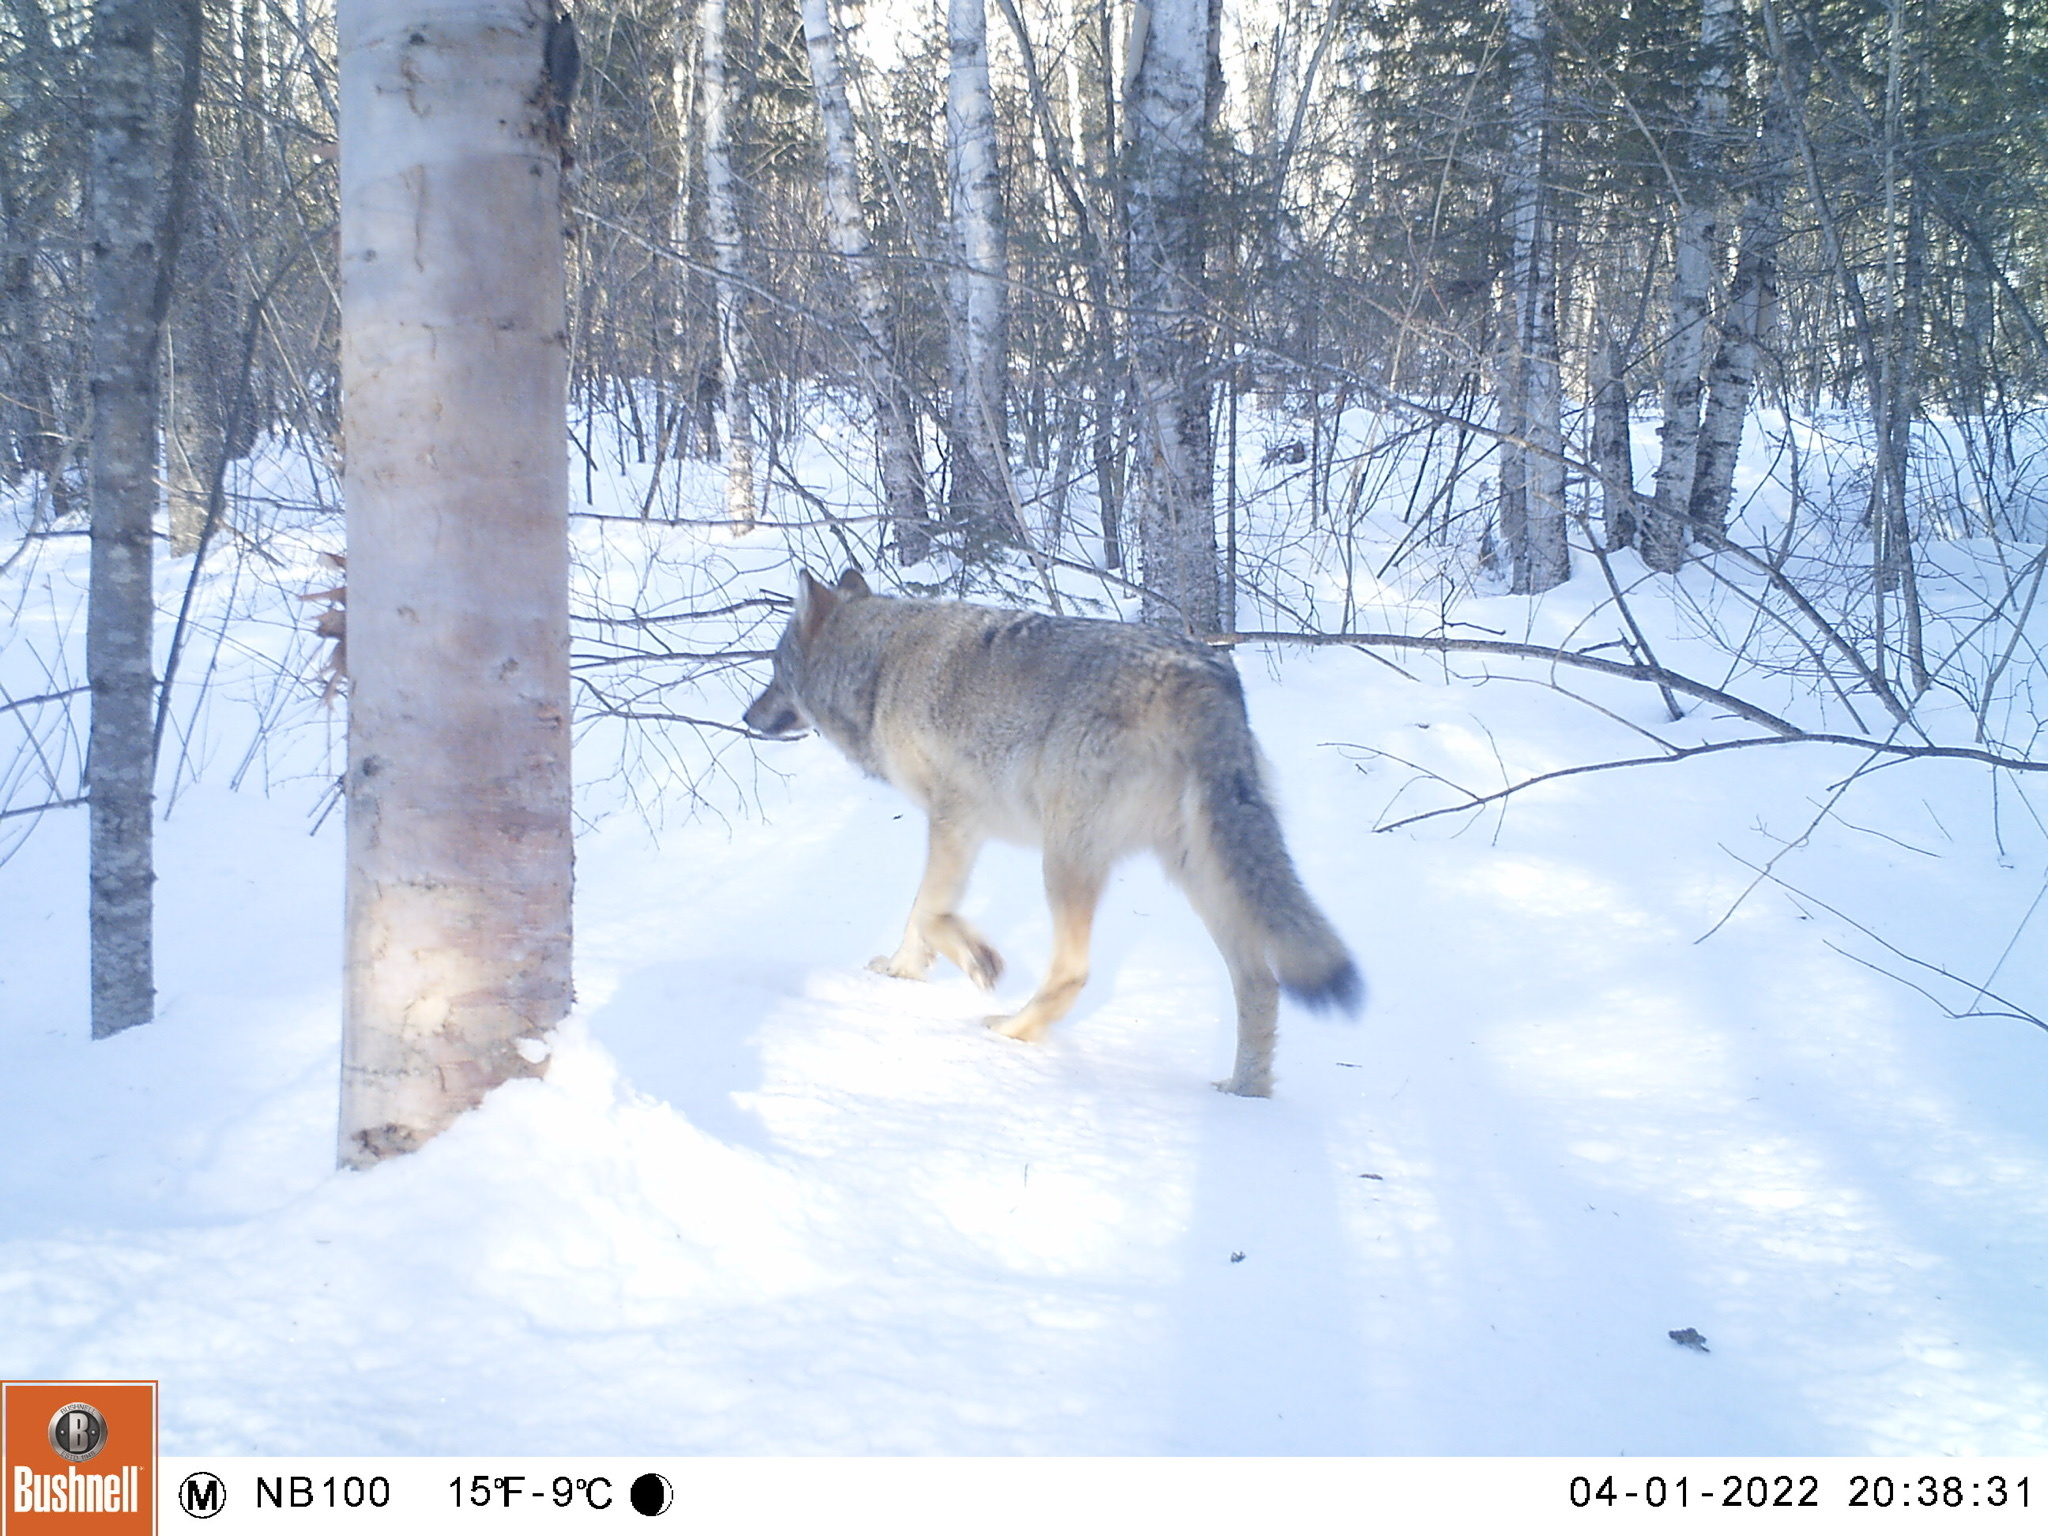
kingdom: Animalia
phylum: Chordata
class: Mammalia
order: Carnivora
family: Canidae
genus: Canis
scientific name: Canis lupus
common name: Gray wolf
